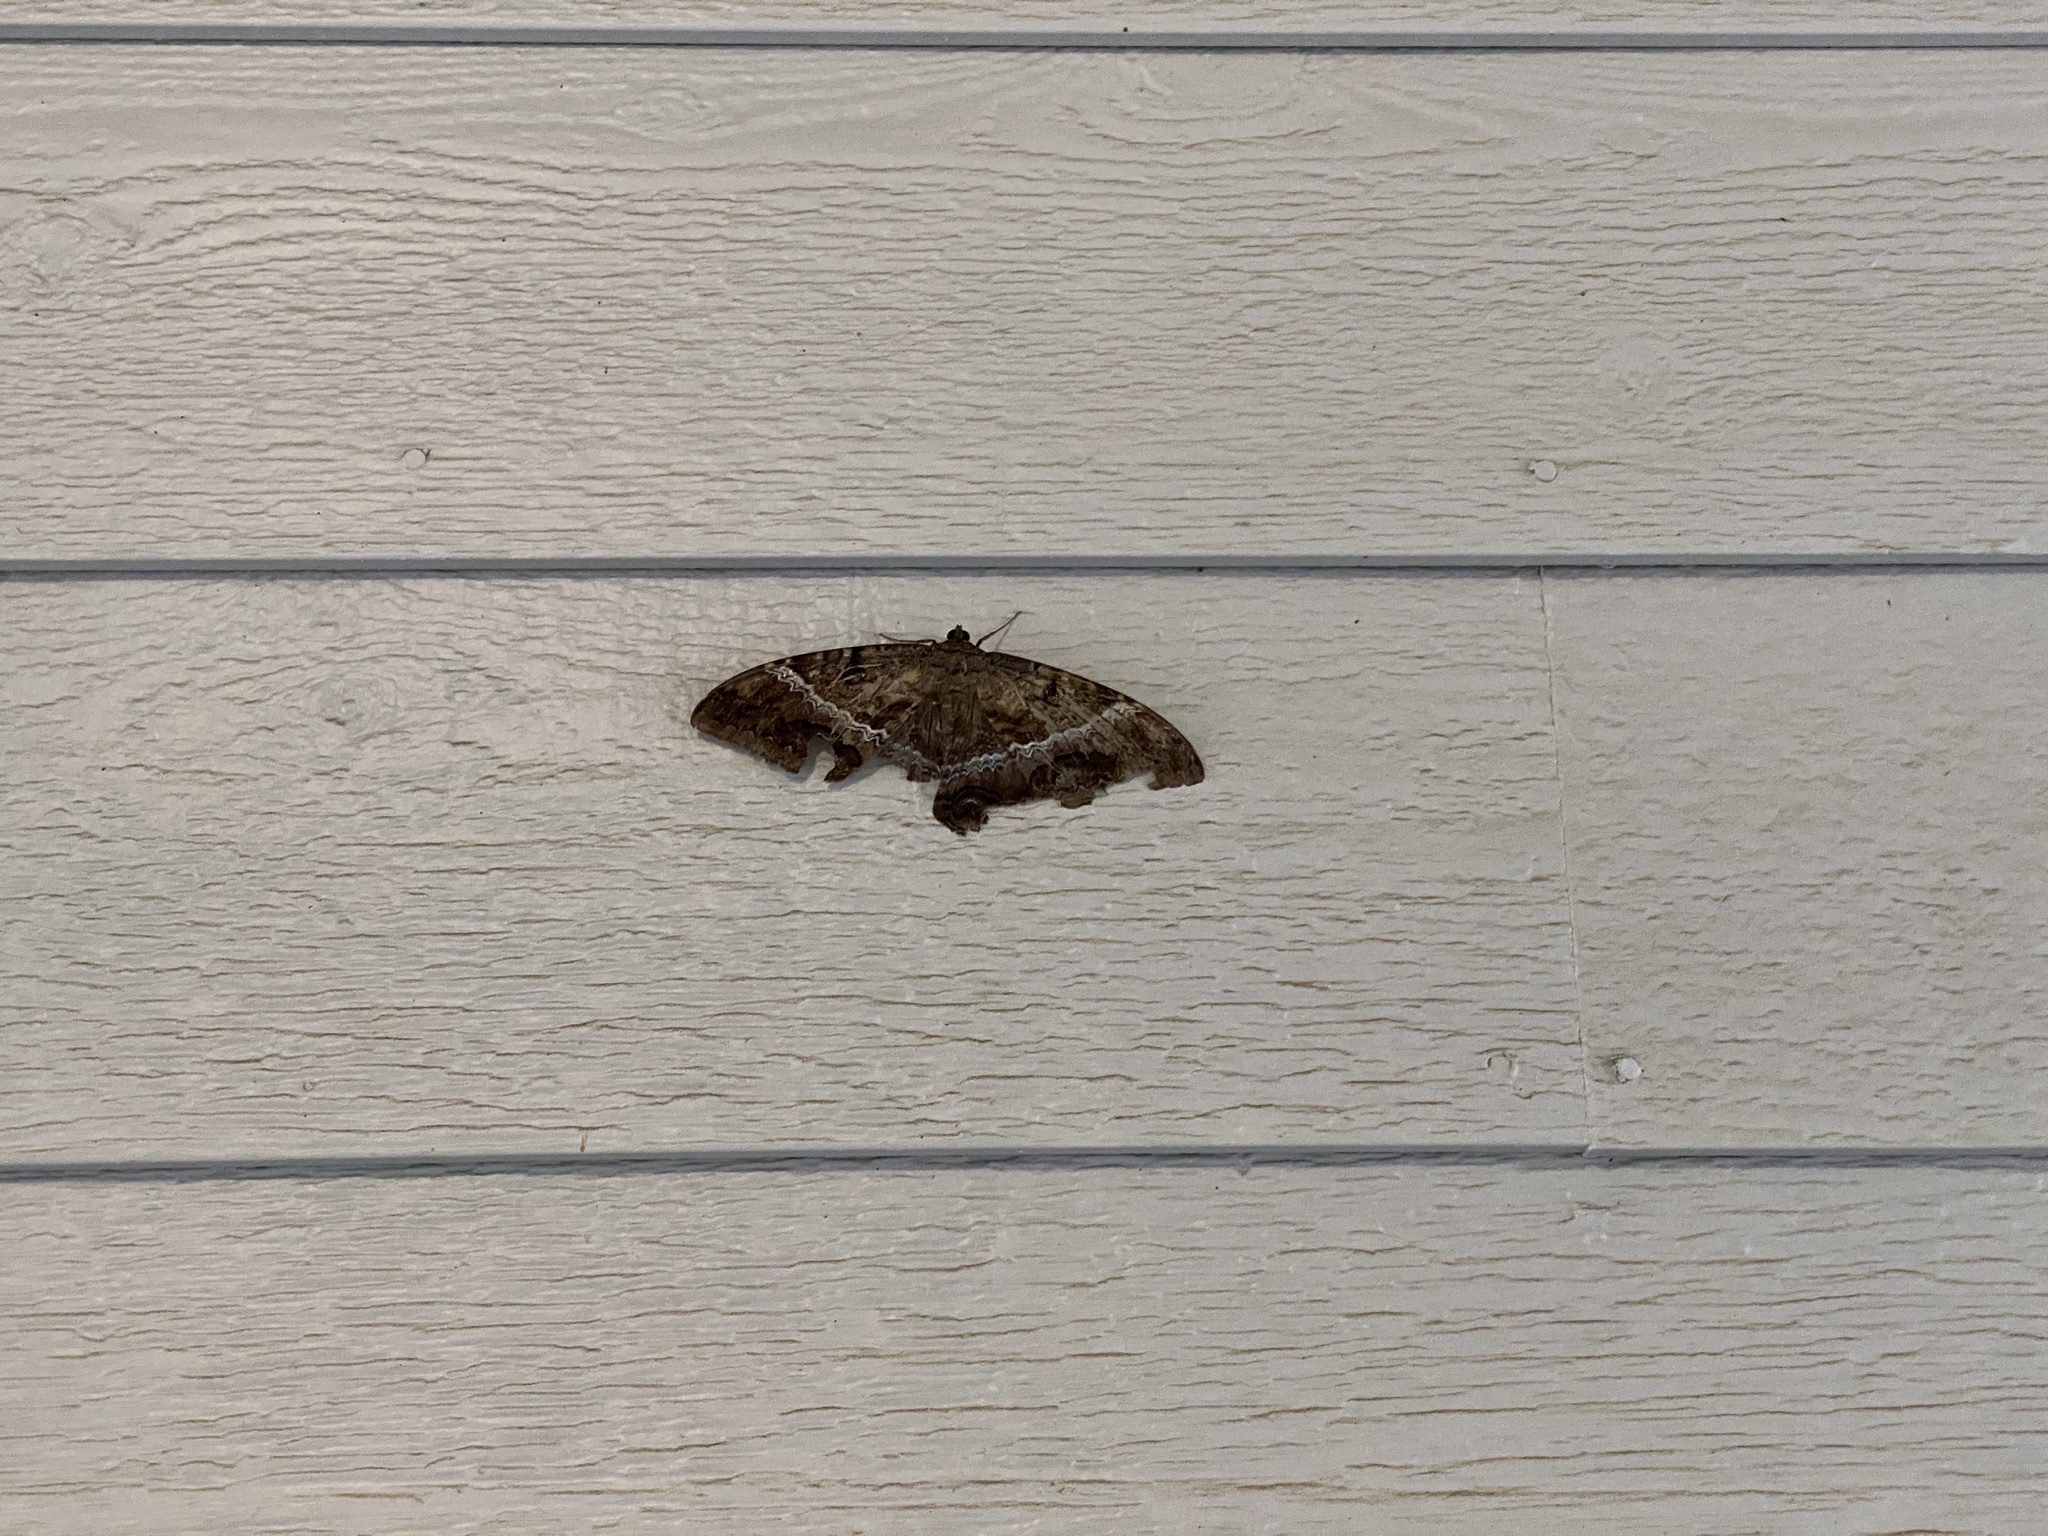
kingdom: Animalia
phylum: Arthropoda
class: Insecta
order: Lepidoptera
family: Erebidae
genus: Ascalapha
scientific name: Ascalapha odorata
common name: Black witch
